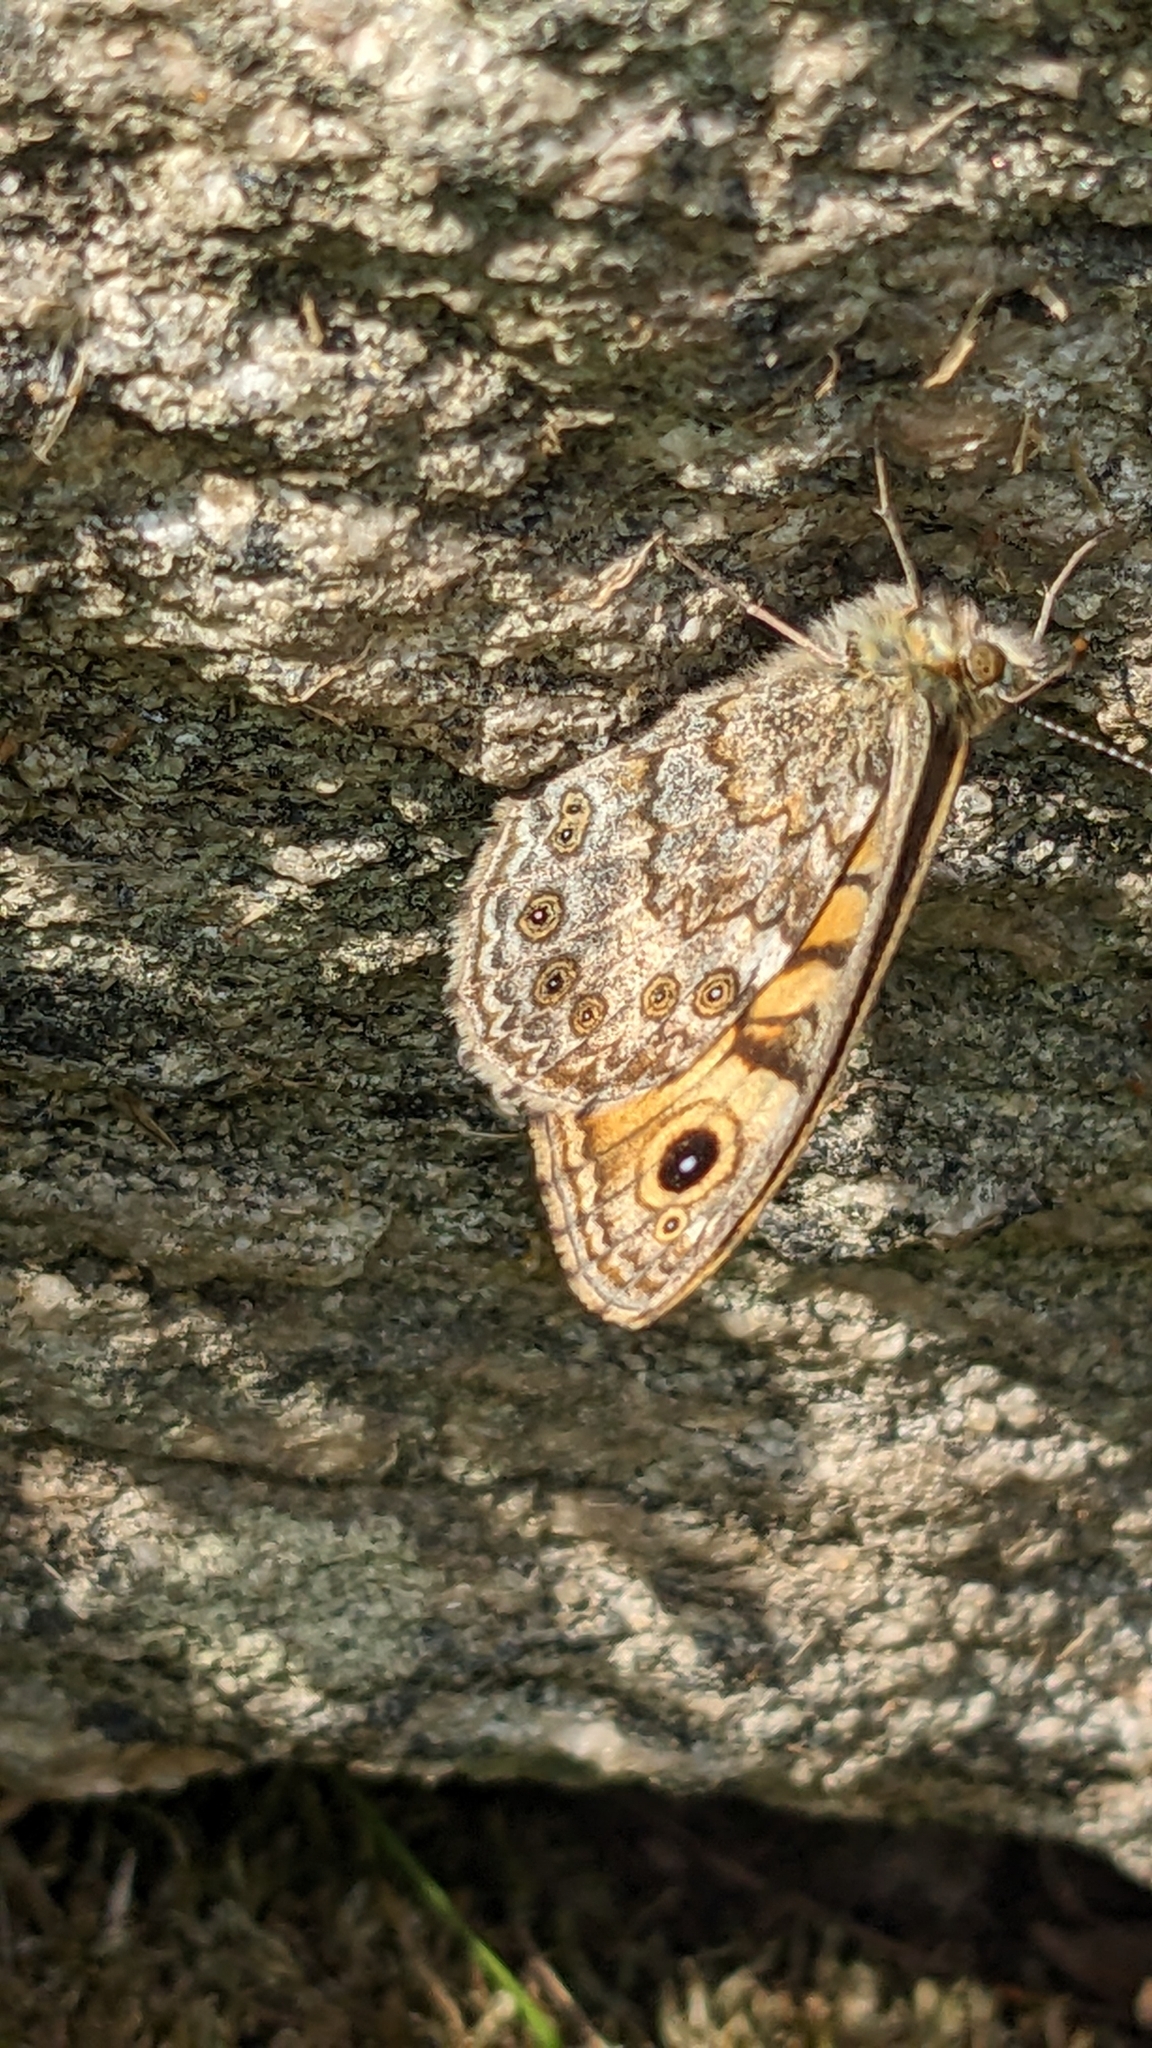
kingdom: Animalia
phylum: Arthropoda
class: Insecta
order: Lepidoptera
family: Nymphalidae
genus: Pararge
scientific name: Pararge Lasiommata megera
